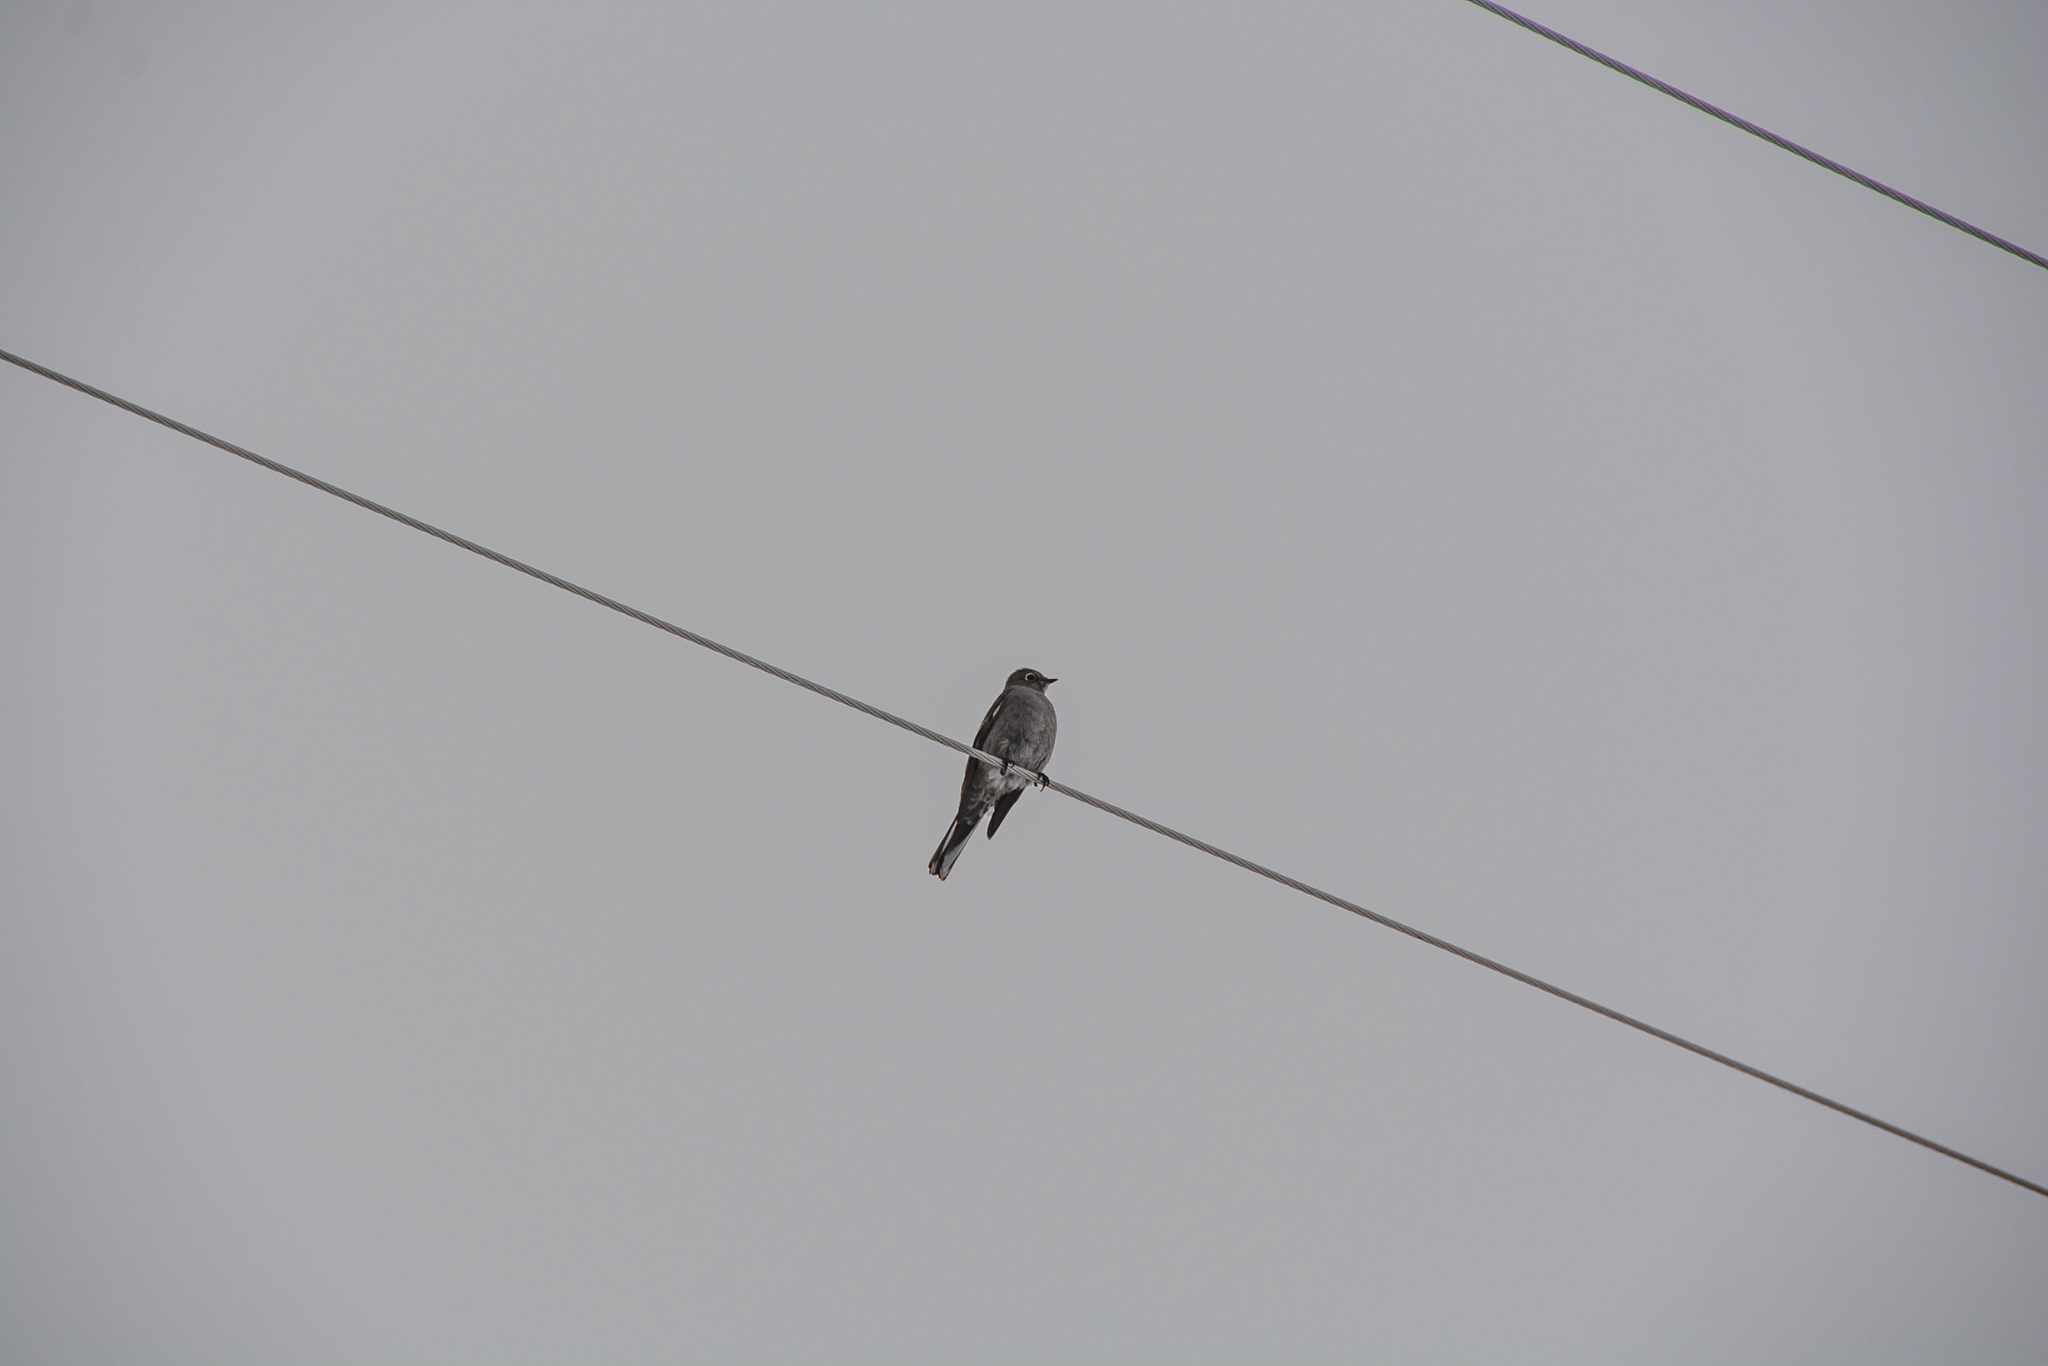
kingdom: Animalia
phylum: Chordata
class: Aves
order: Passeriformes
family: Turdidae
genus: Myadestes
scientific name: Myadestes townsendi
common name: Townsend's solitaire
